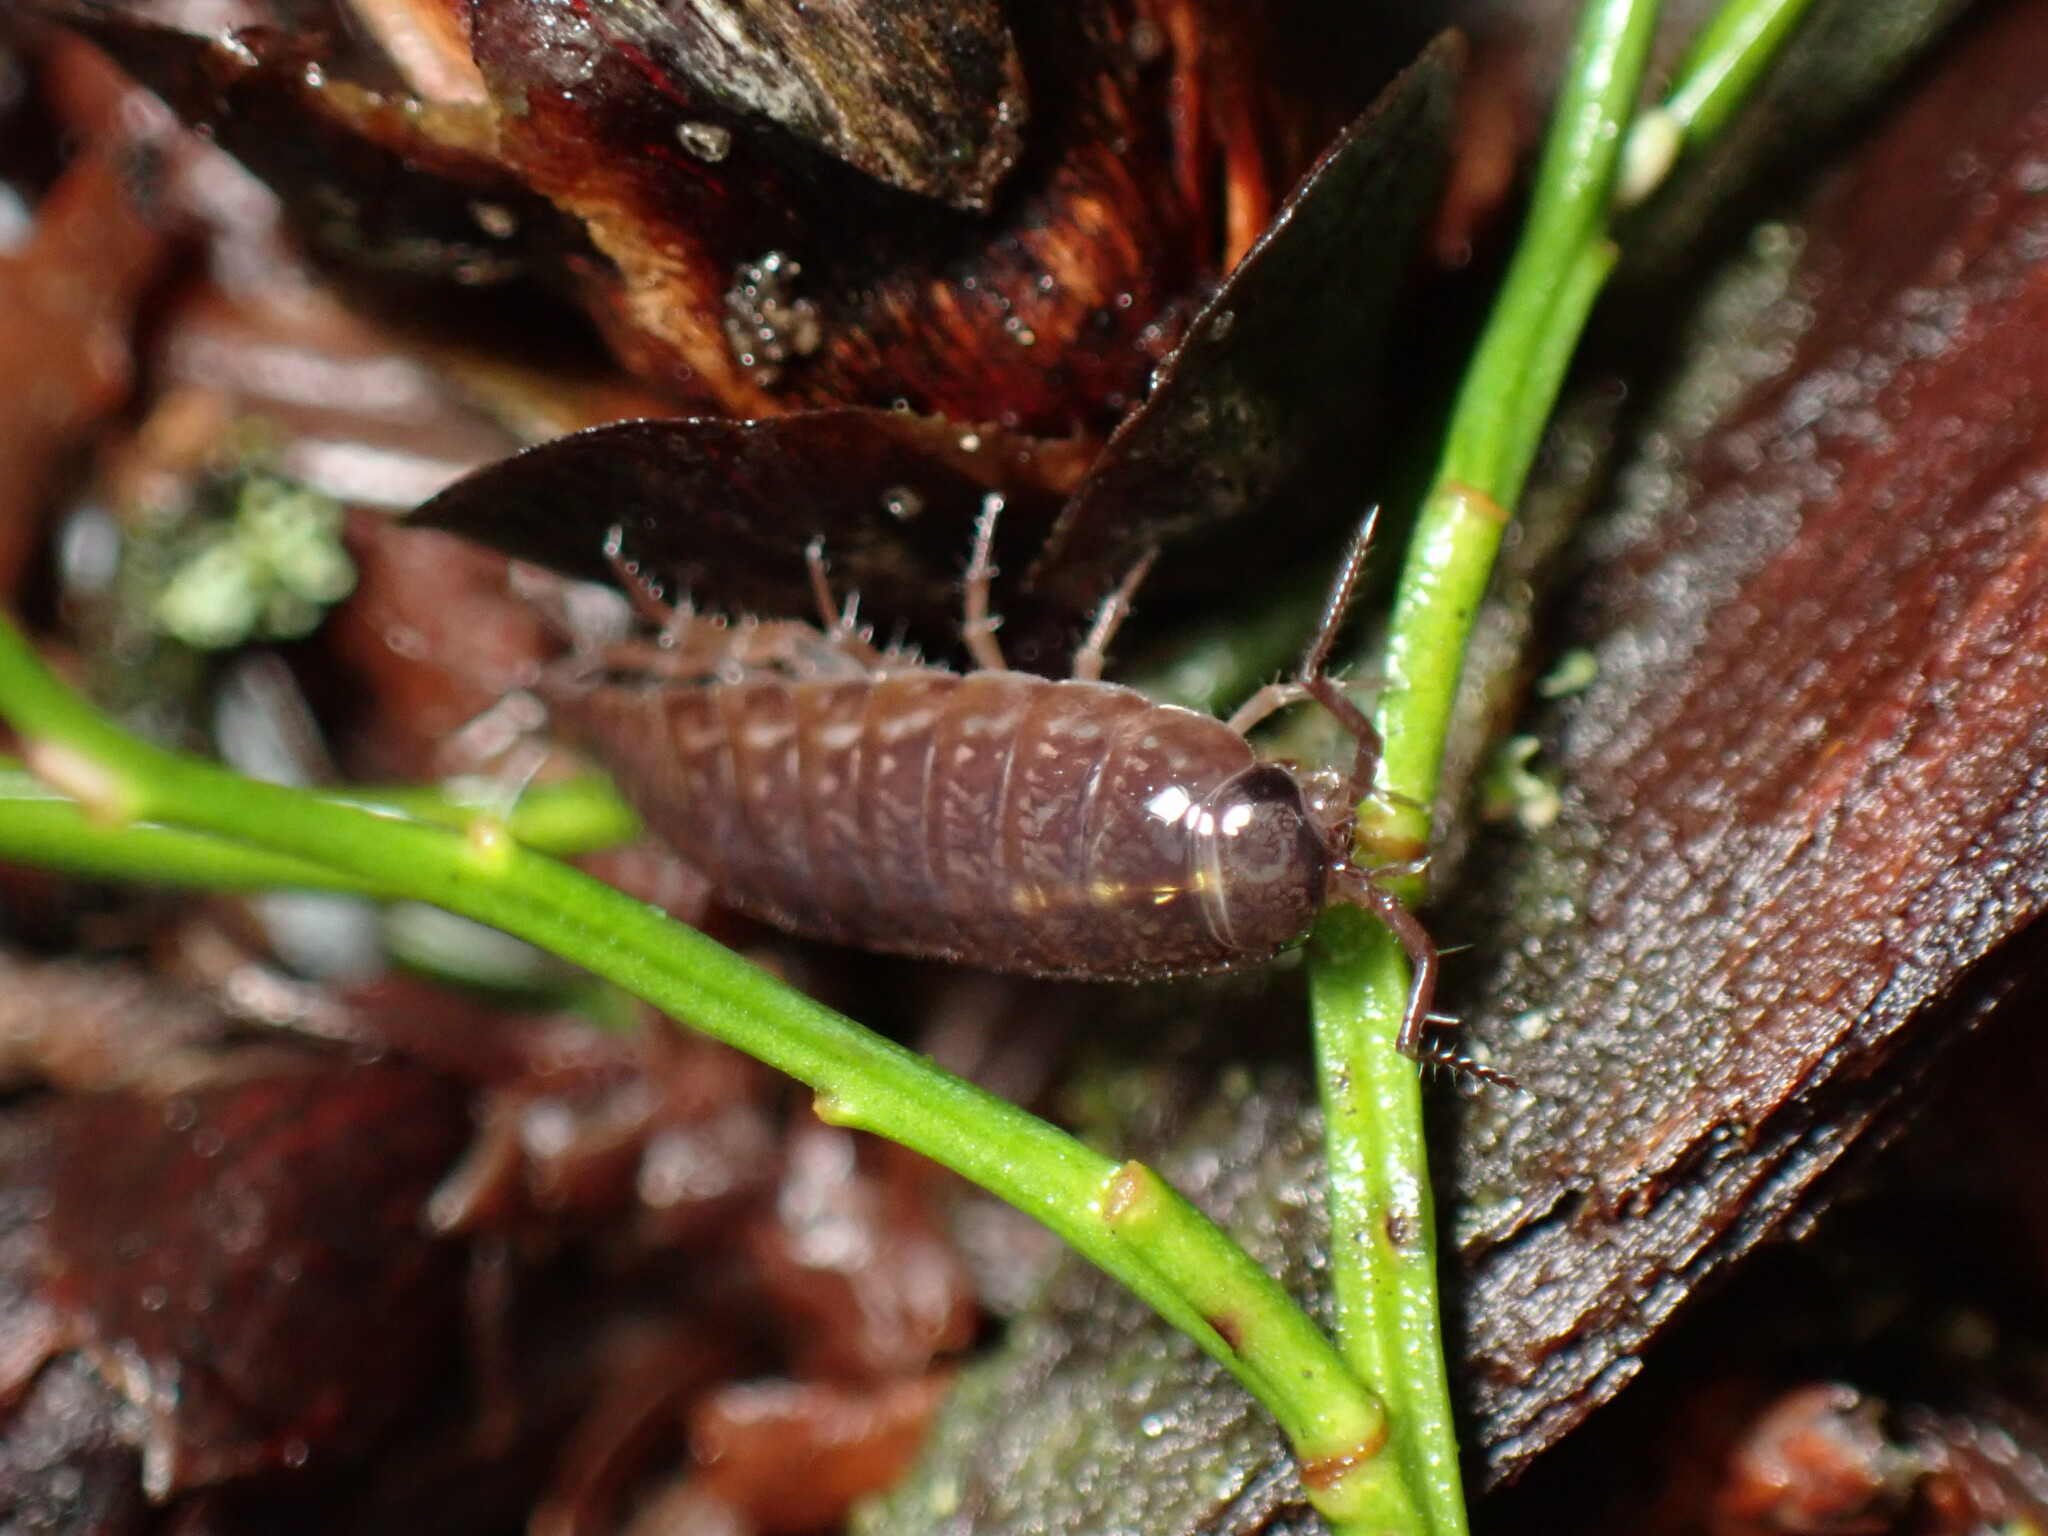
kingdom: Animalia
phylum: Arthropoda
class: Malacostraca
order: Isopoda
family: Ligiidae
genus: Ligidium
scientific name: Ligidium gracile
